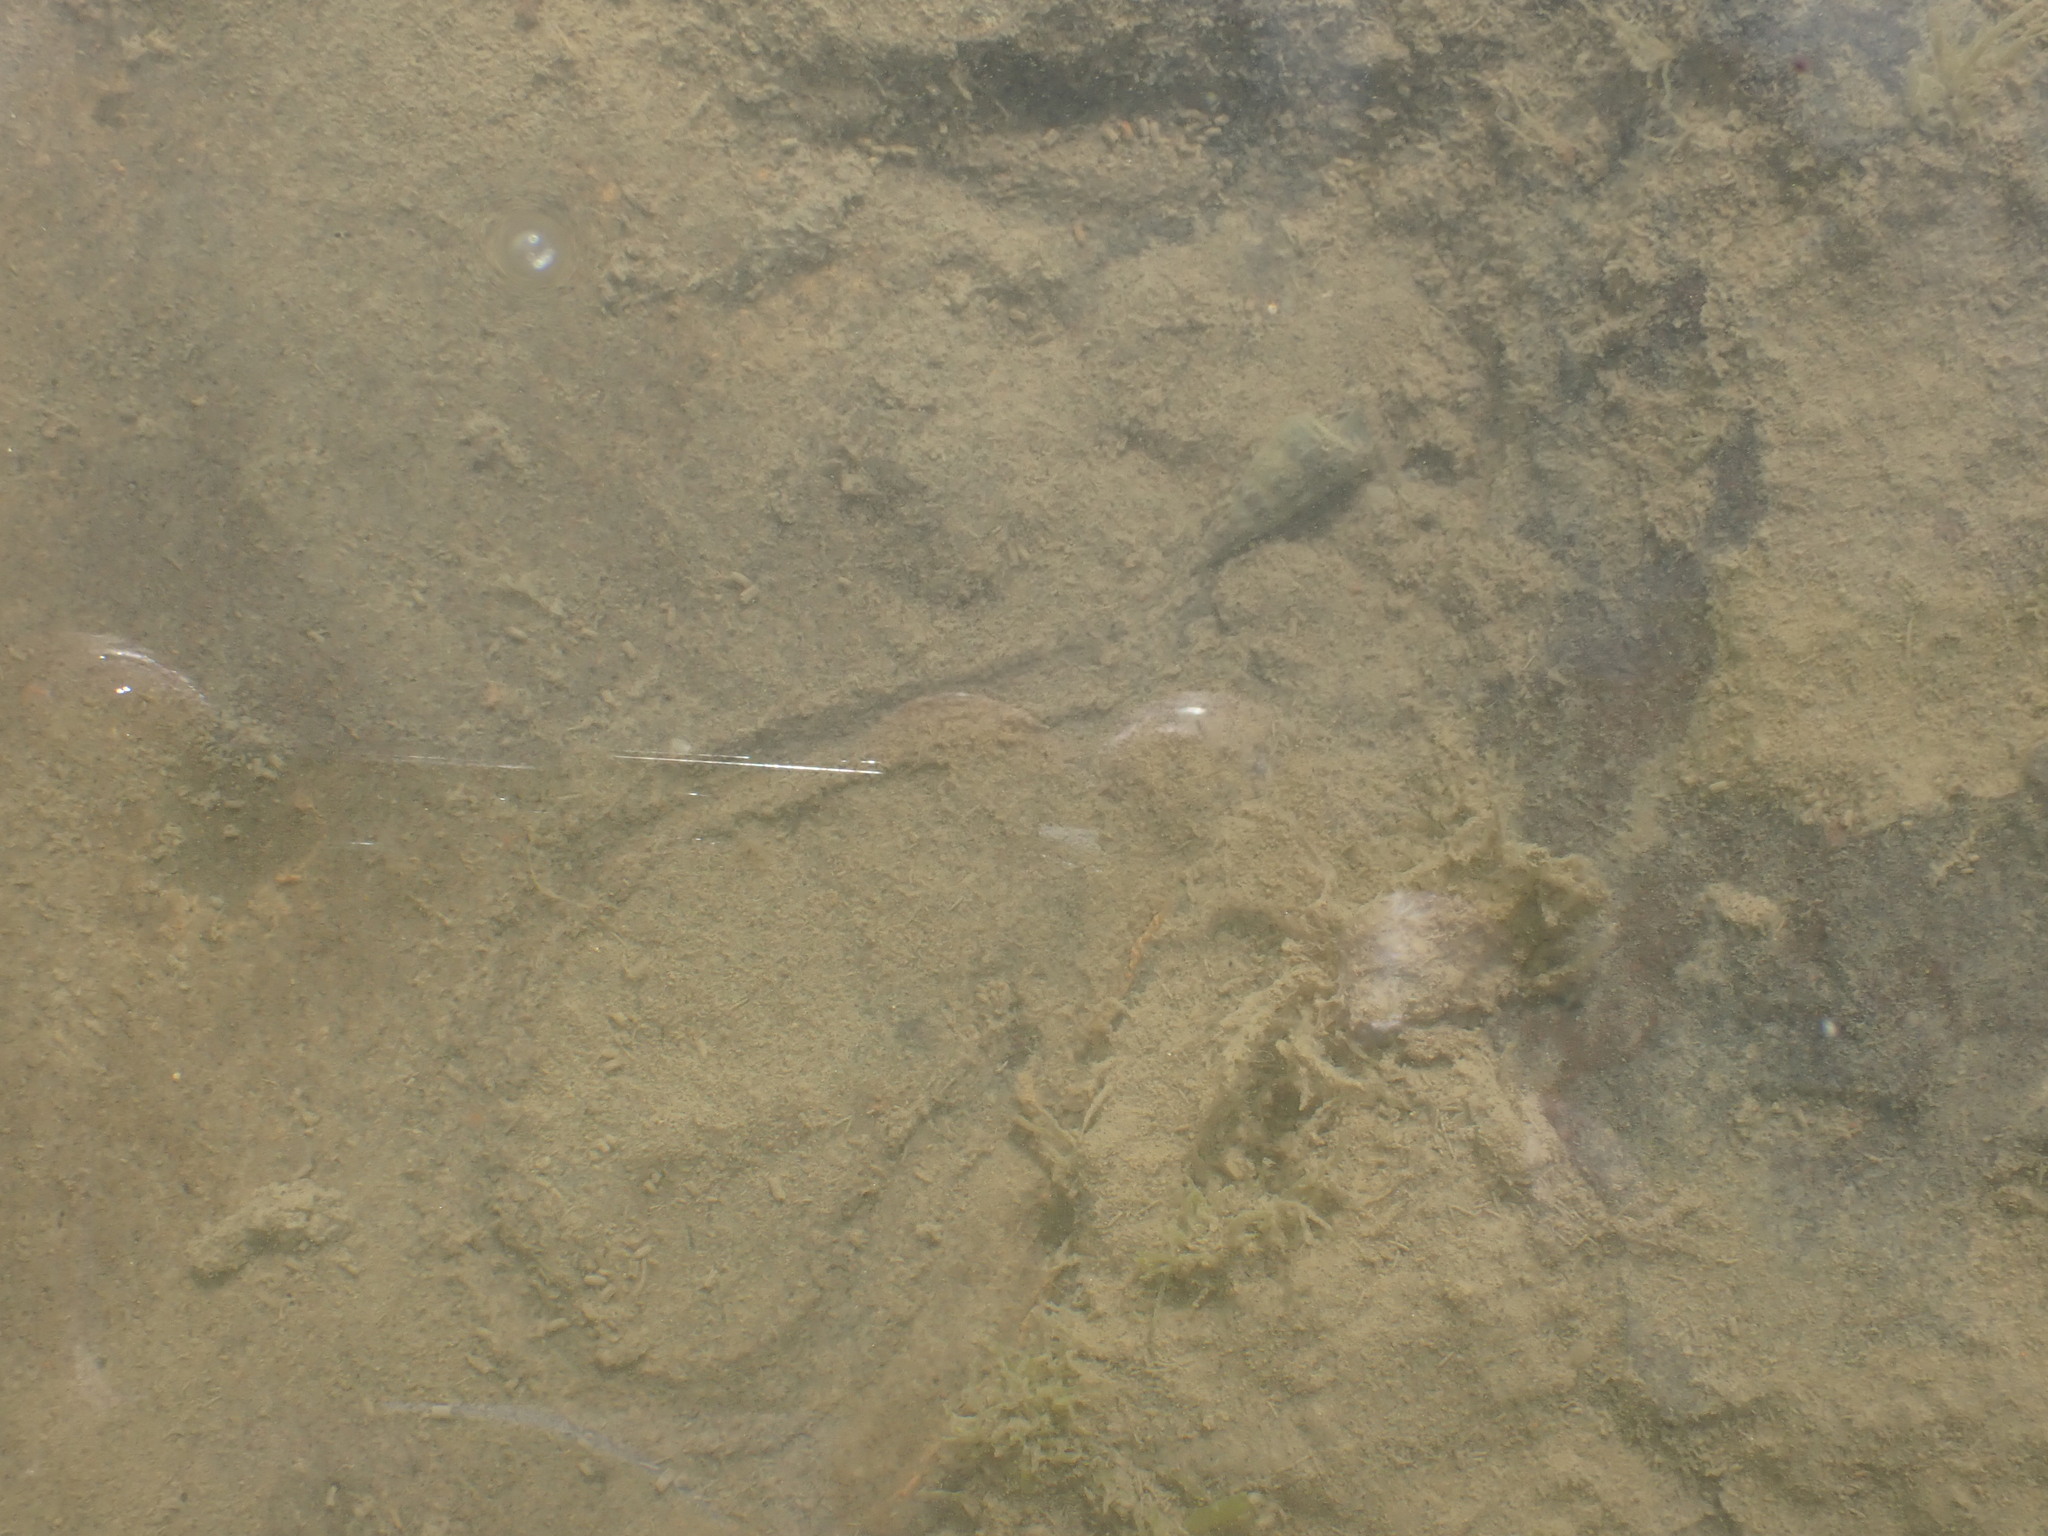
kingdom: Animalia
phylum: Mollusca
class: Gastropoda
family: Batillariidae
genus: Zeacumantus
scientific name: Zeacumantus lutulentus
